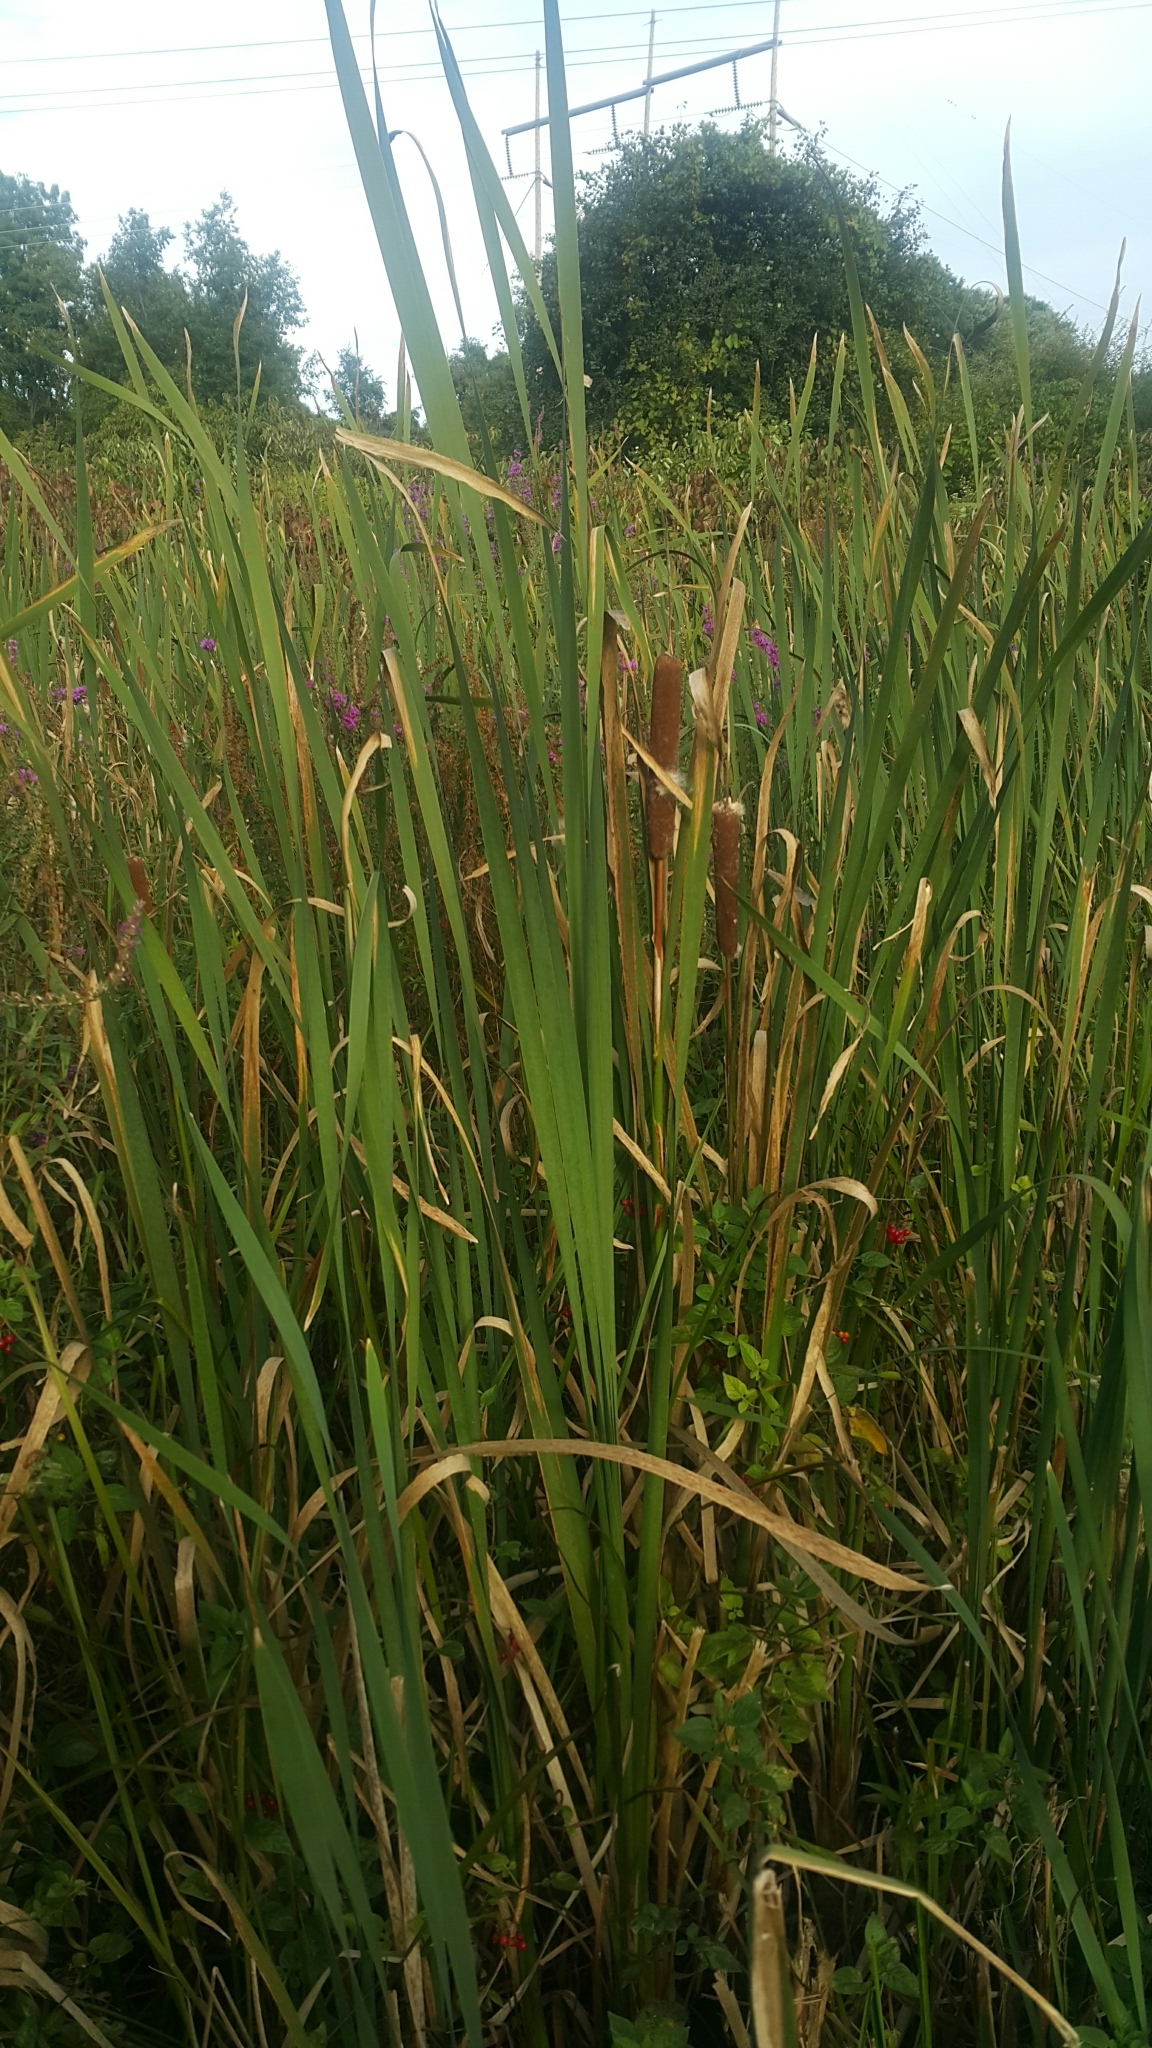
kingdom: Plantae
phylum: Tracheophyta
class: Liliopsida
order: Poales
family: Typhaceae
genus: Typha
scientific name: Typha latifolia
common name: Broadleaf cattail
